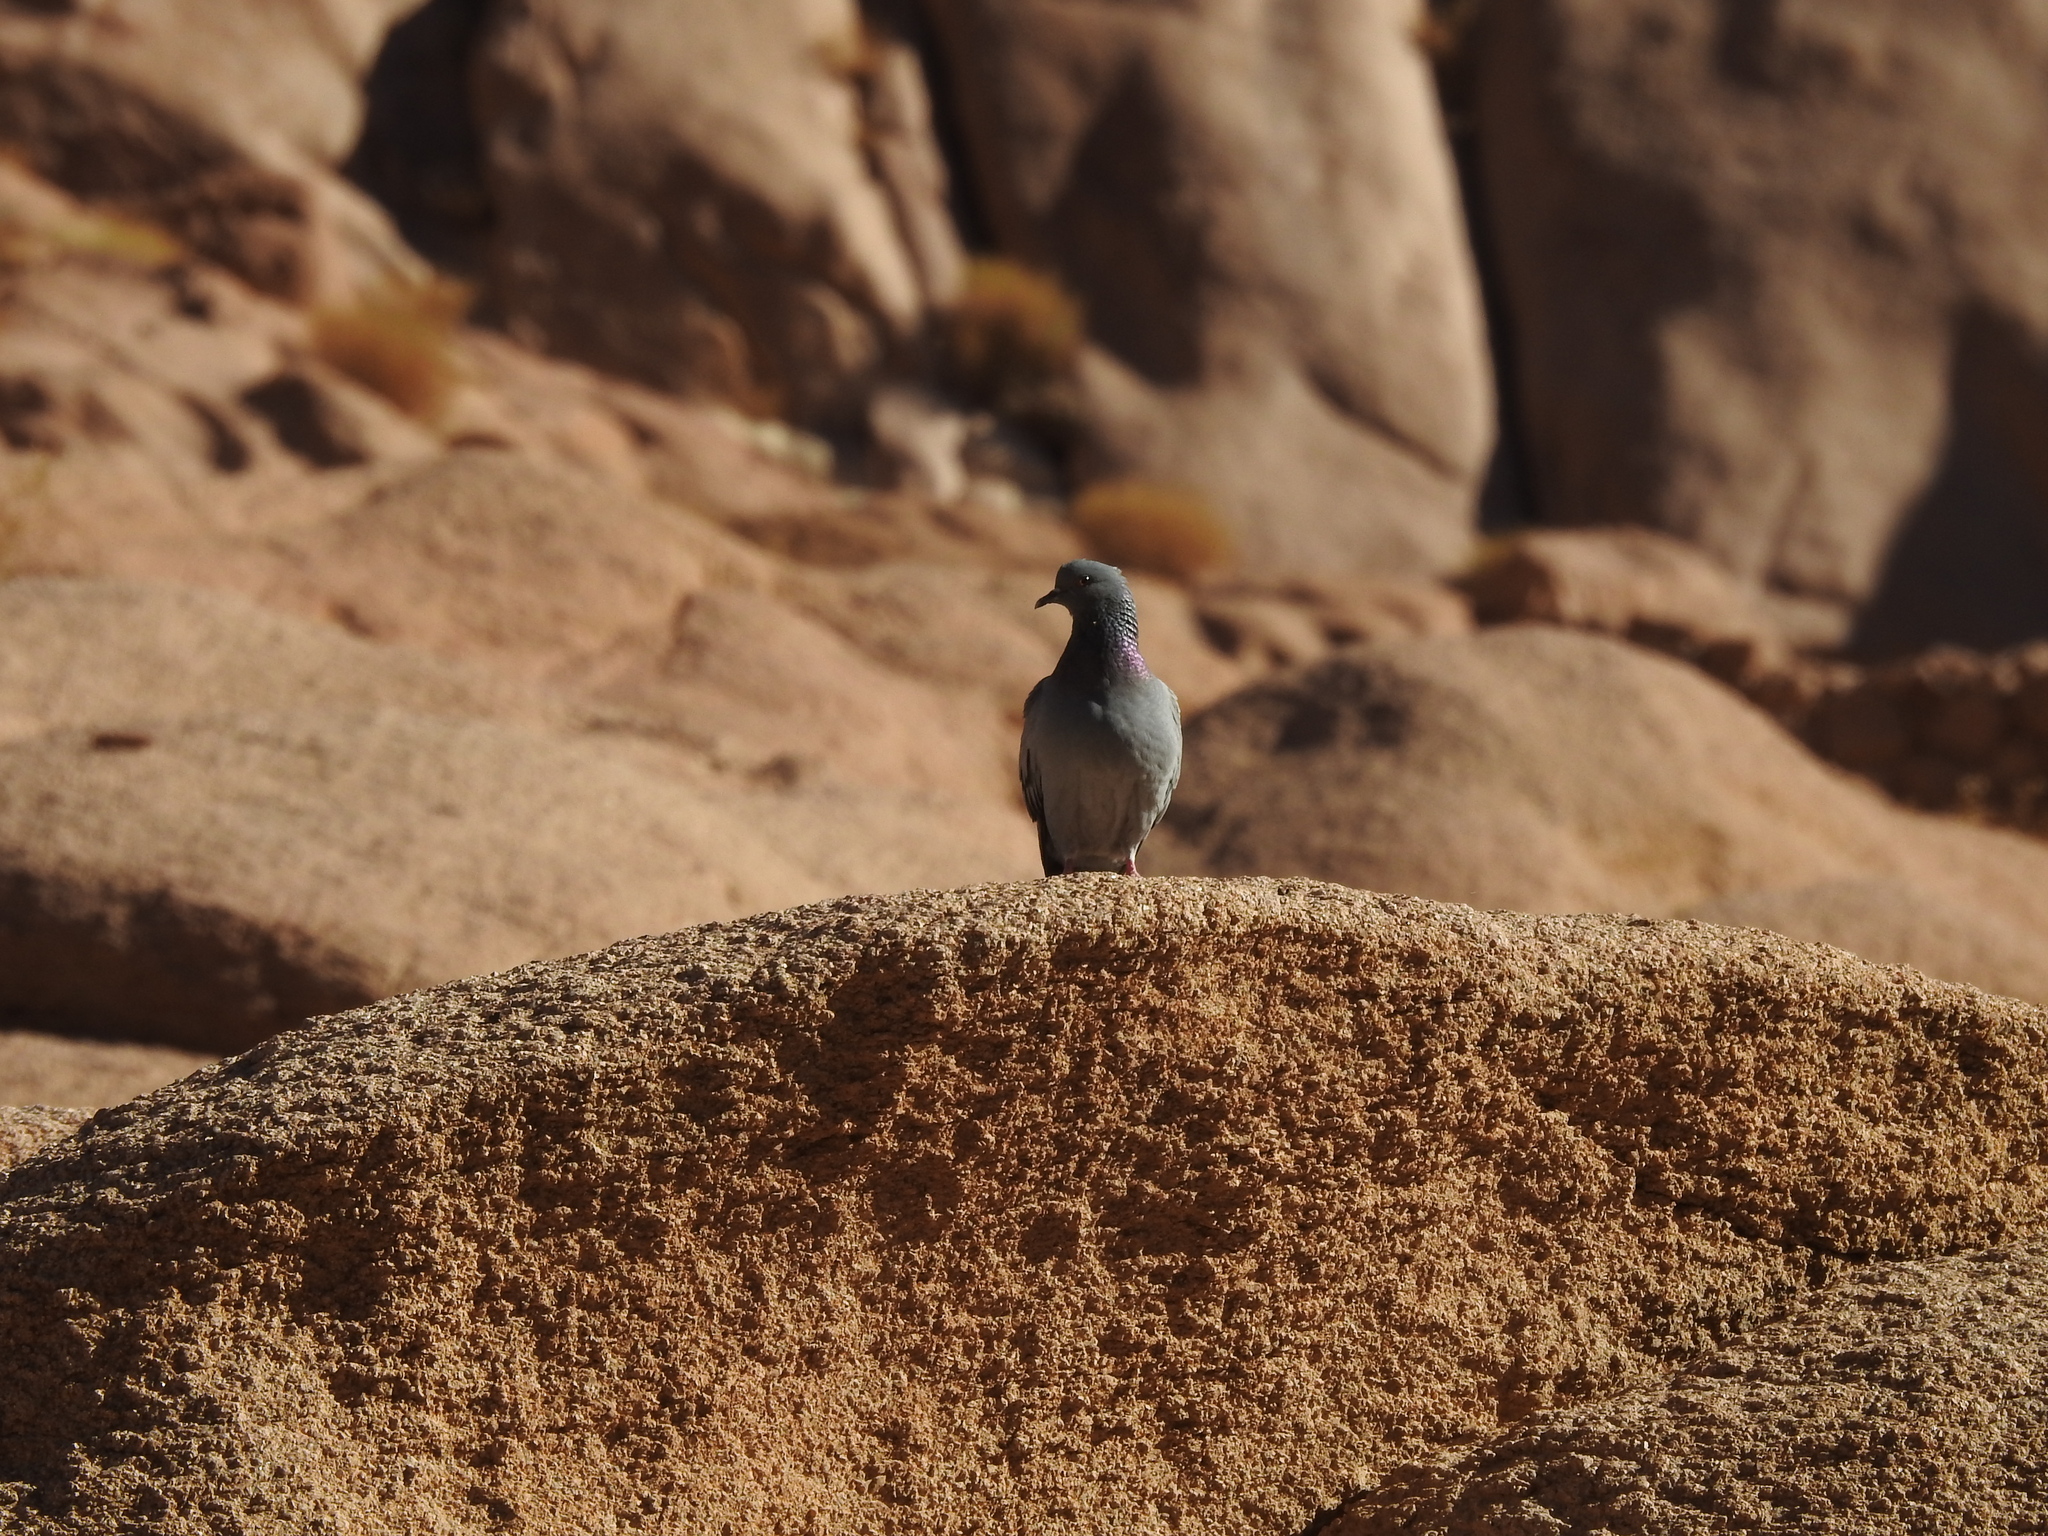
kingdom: Animalia
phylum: Chordata
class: Aves
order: Columbiformes
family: Columbidae
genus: Columba
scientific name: Columba livia
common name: Rock pigeon
